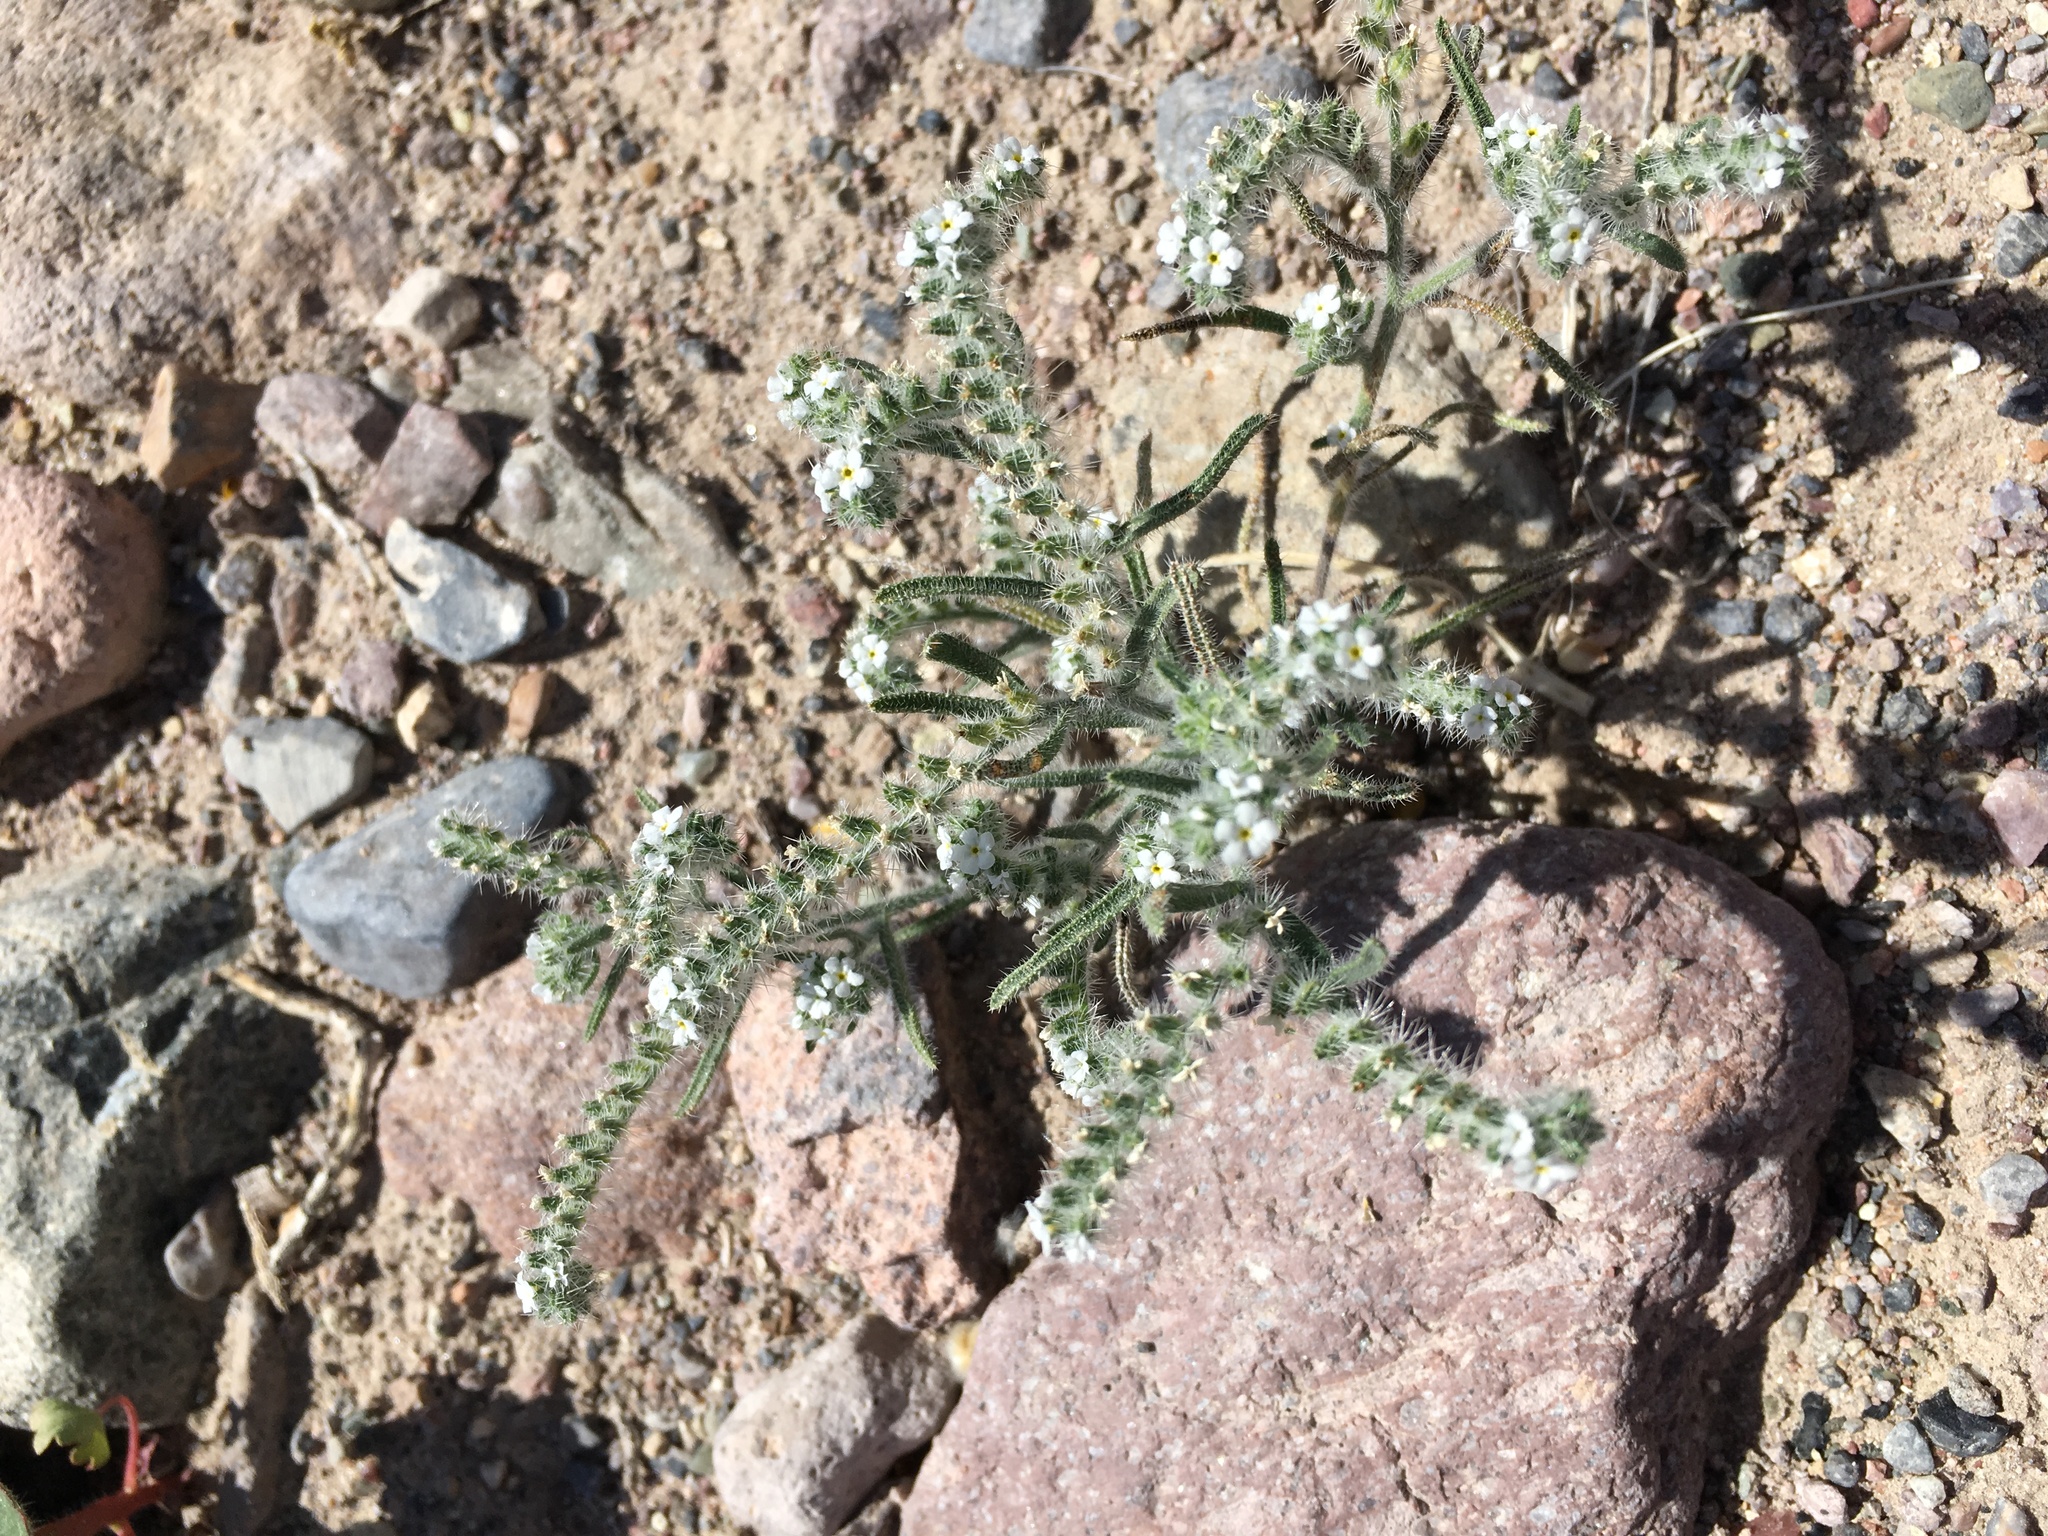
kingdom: Plantae
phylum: Tracheophyta
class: Magnoliopsida
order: Boraginales
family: Boraginaceae
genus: Johnstonella
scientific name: Johnstonella angustifolia
